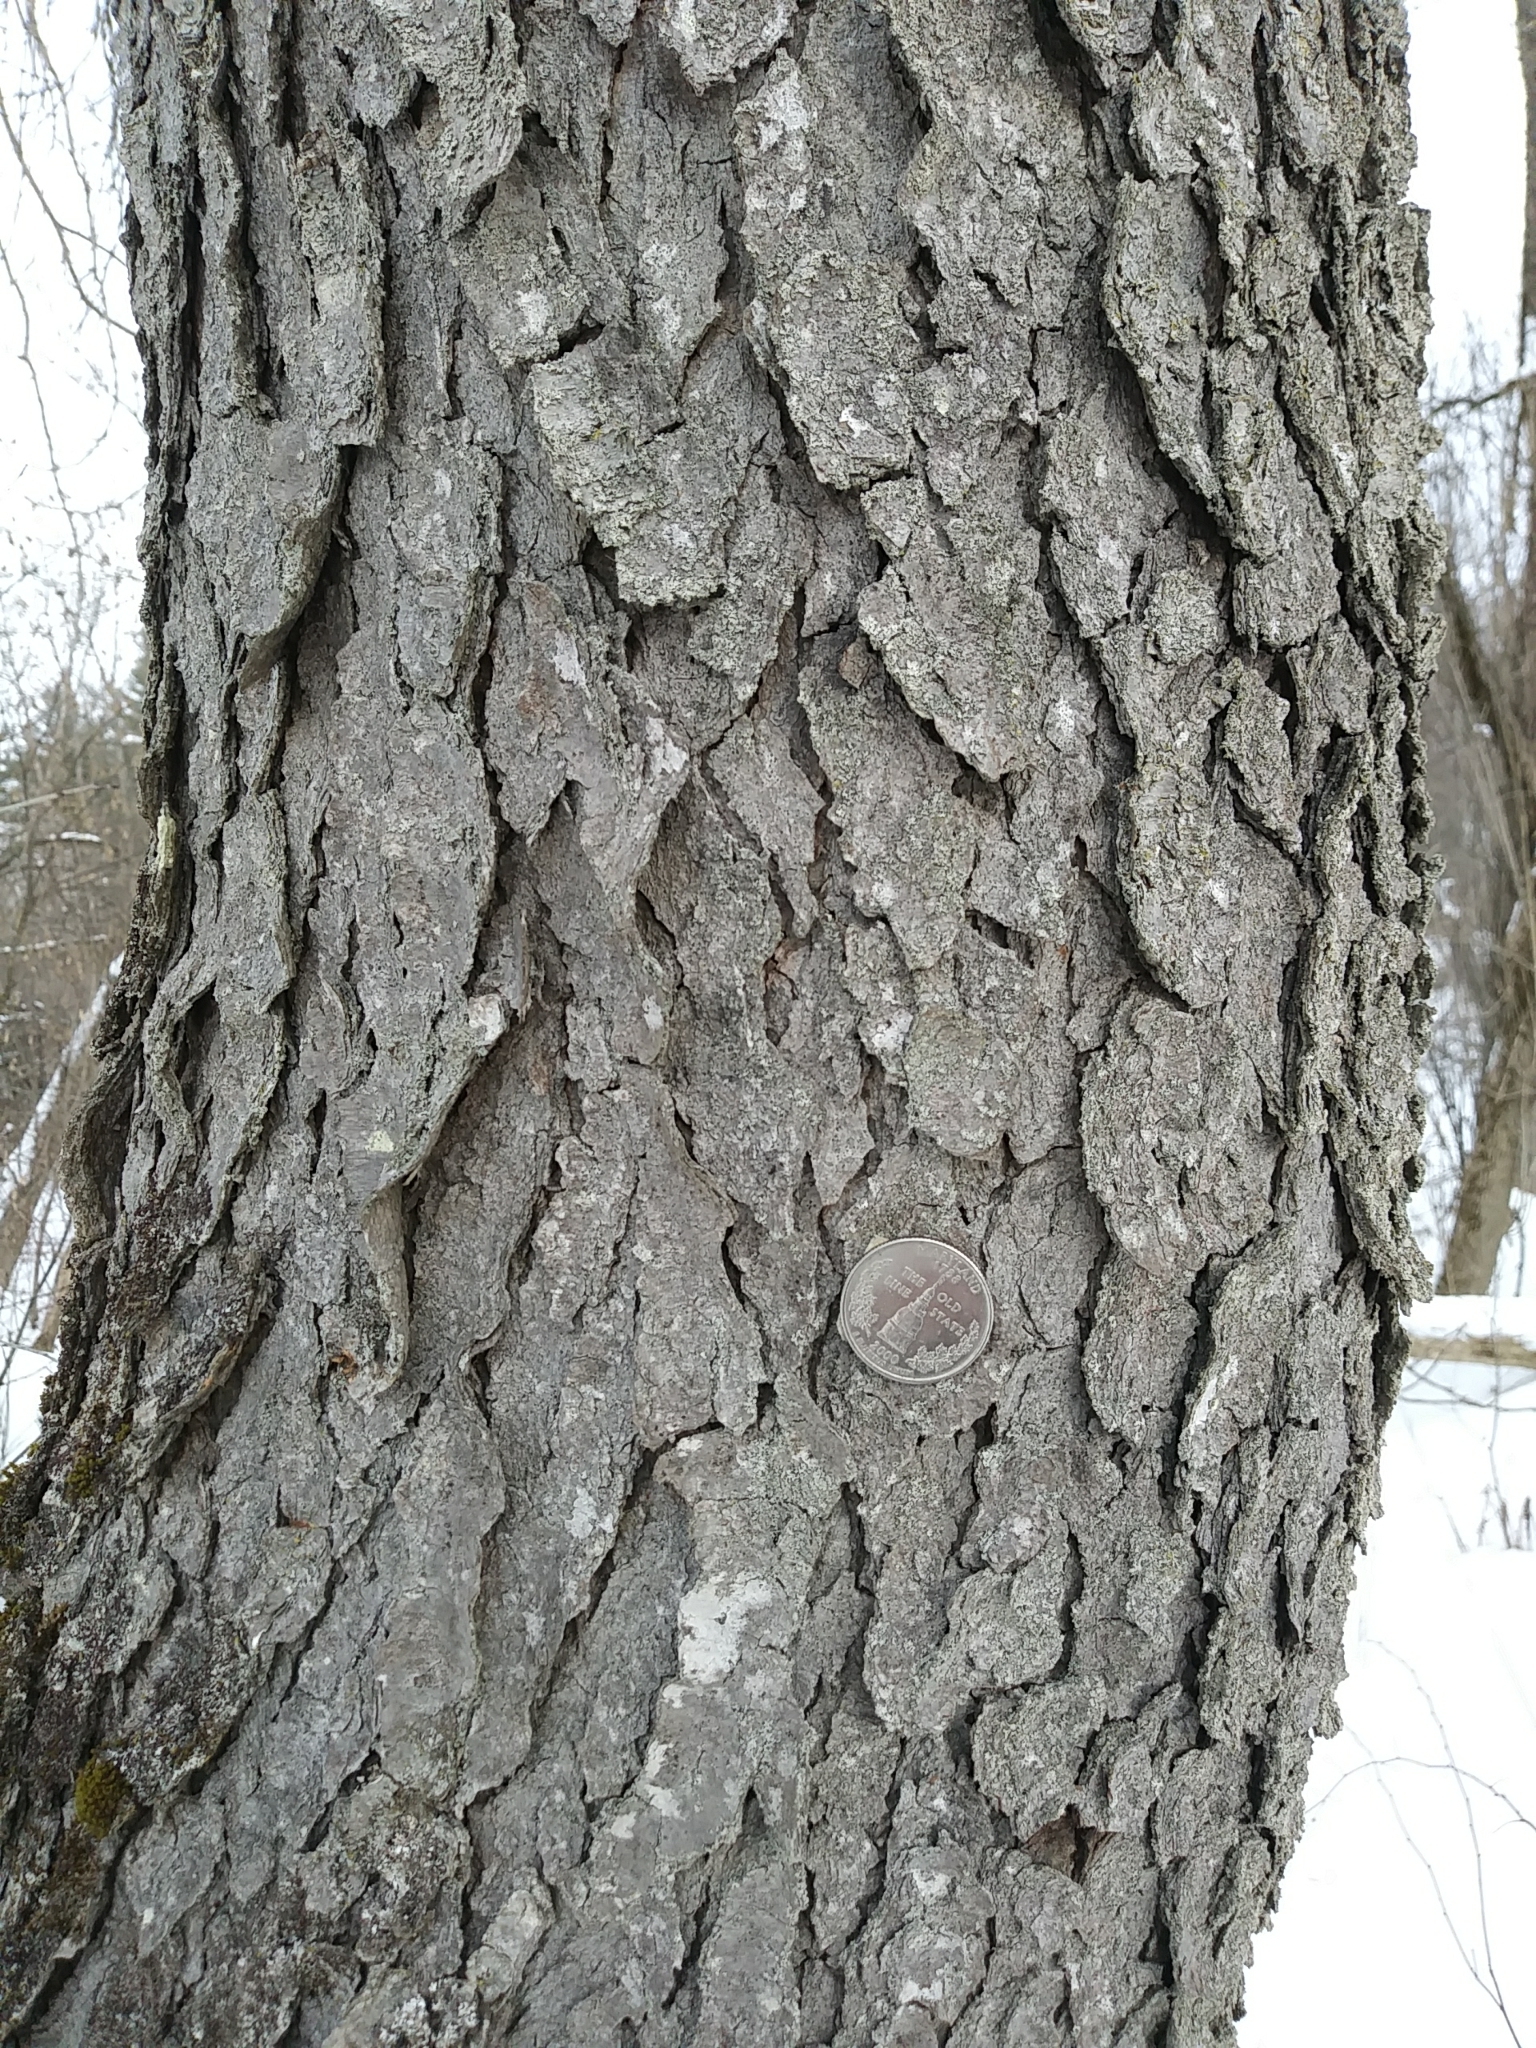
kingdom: Plantae
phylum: Tracheophyta
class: Magnoliopsida
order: Rosales
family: Rosaceae
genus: Prunus
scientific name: Prunus serotina
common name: Black cherry
